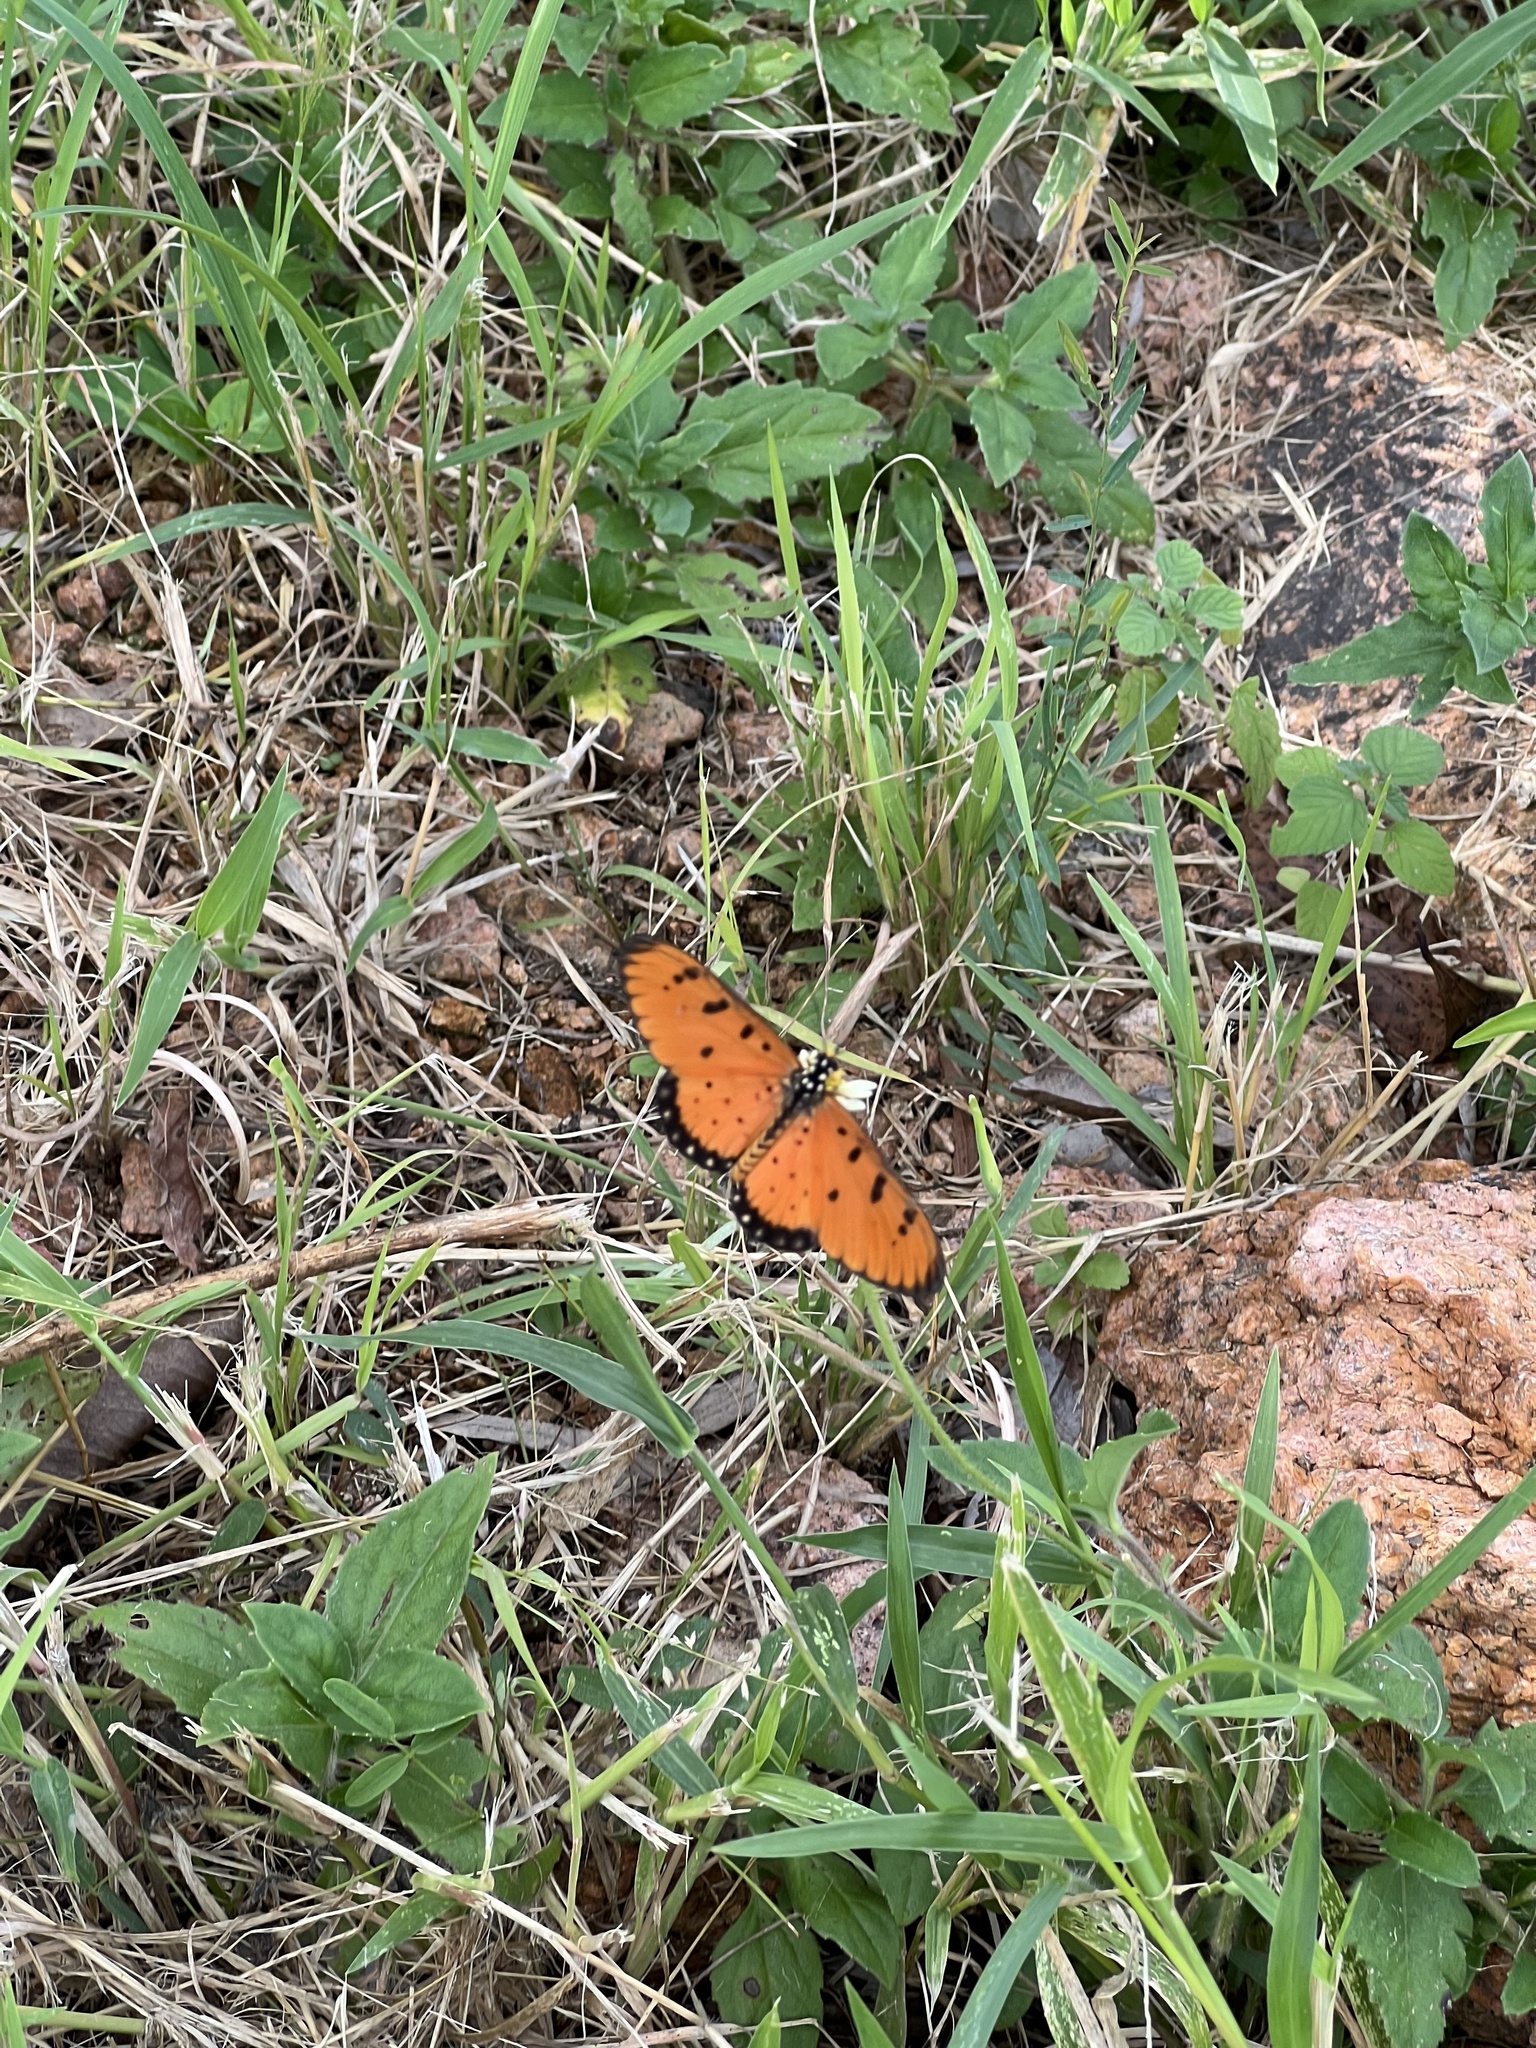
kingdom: Animalia
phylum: Arthropoda
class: Insecta
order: Lepidoptera
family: Nymphalidae
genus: Acraea
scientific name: Acraea terpsicore
